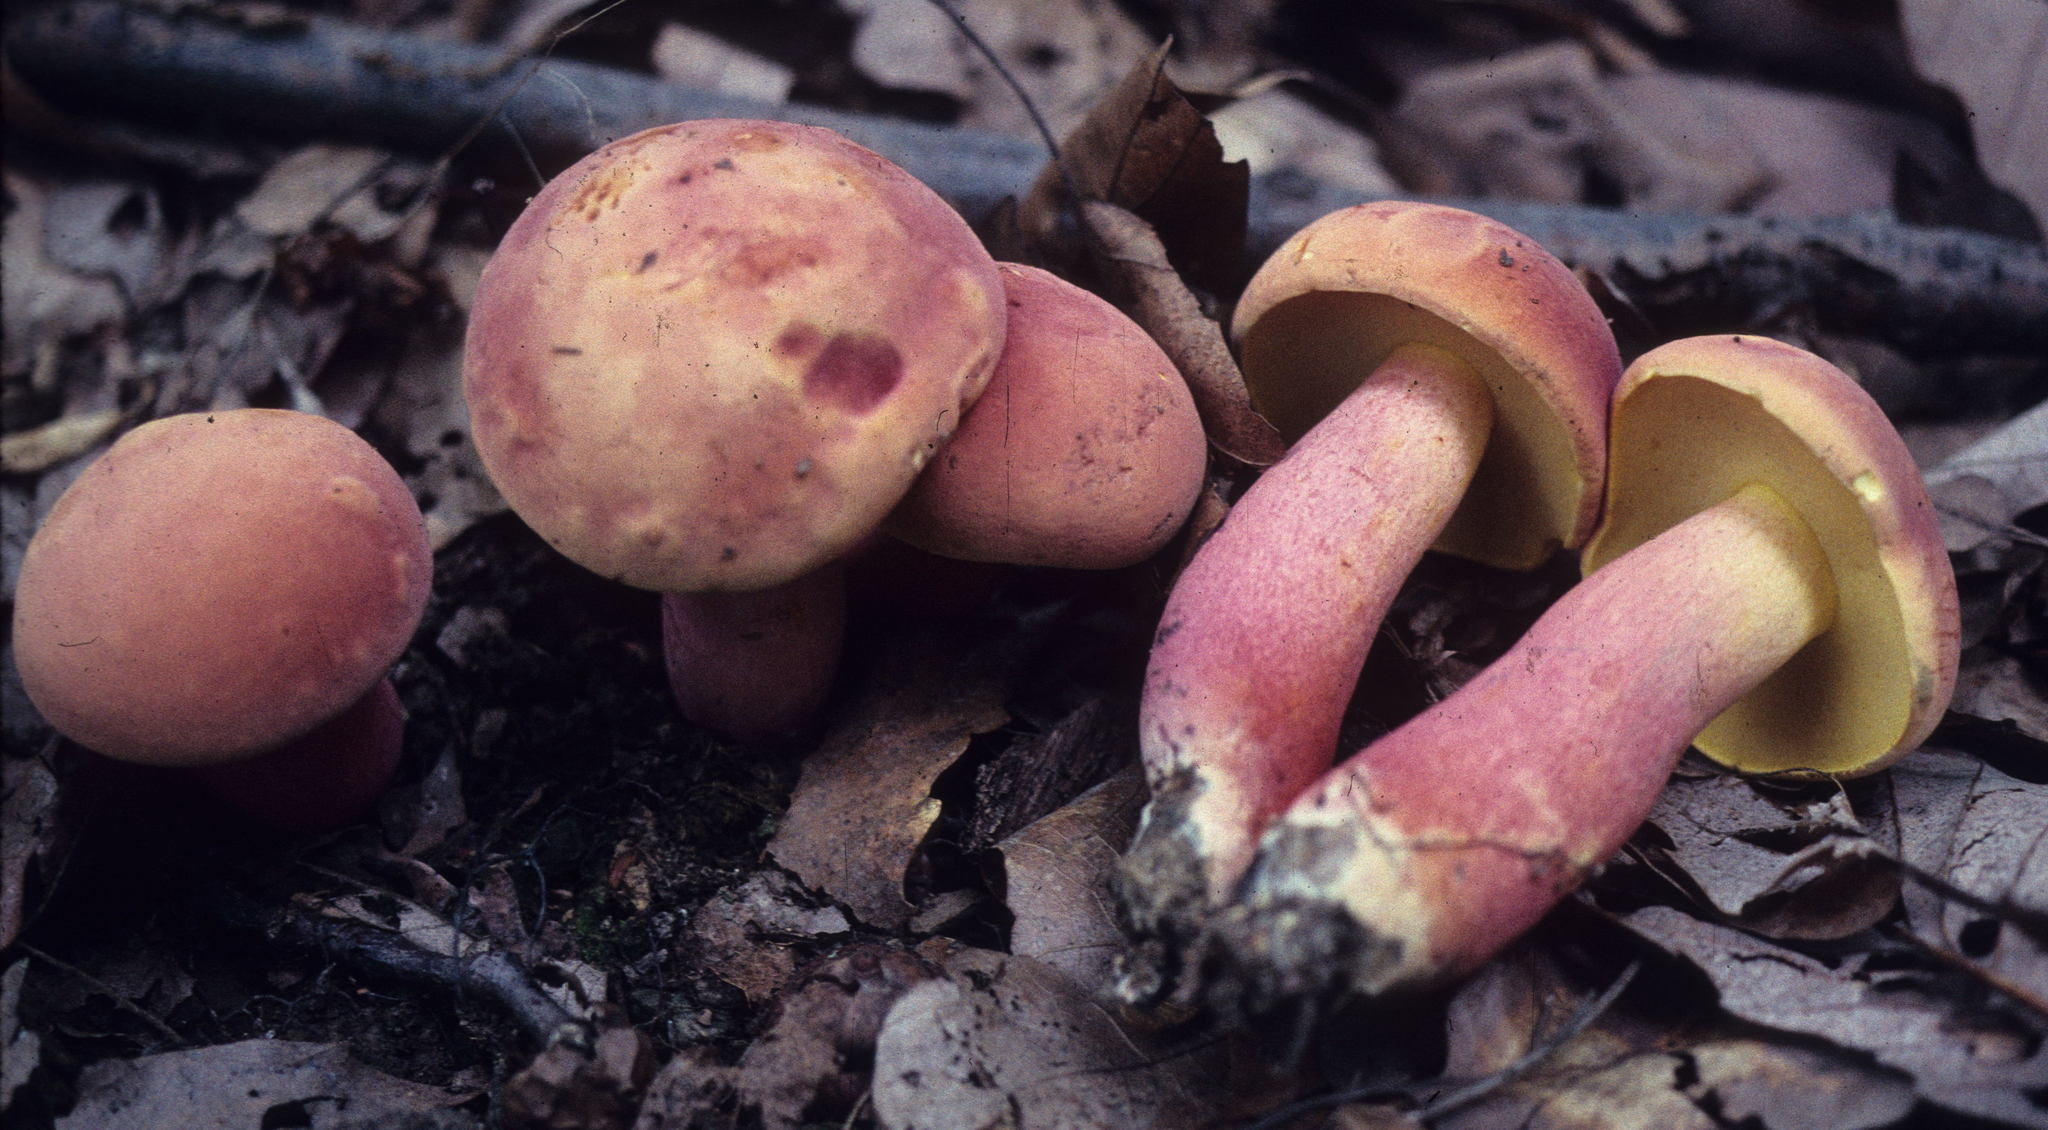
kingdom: Fungi
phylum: Basidiomycota
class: Agaricomycetes
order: Boletales
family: Boletaceae
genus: Lanmaoa
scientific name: Lanmaoa pallidorosea
